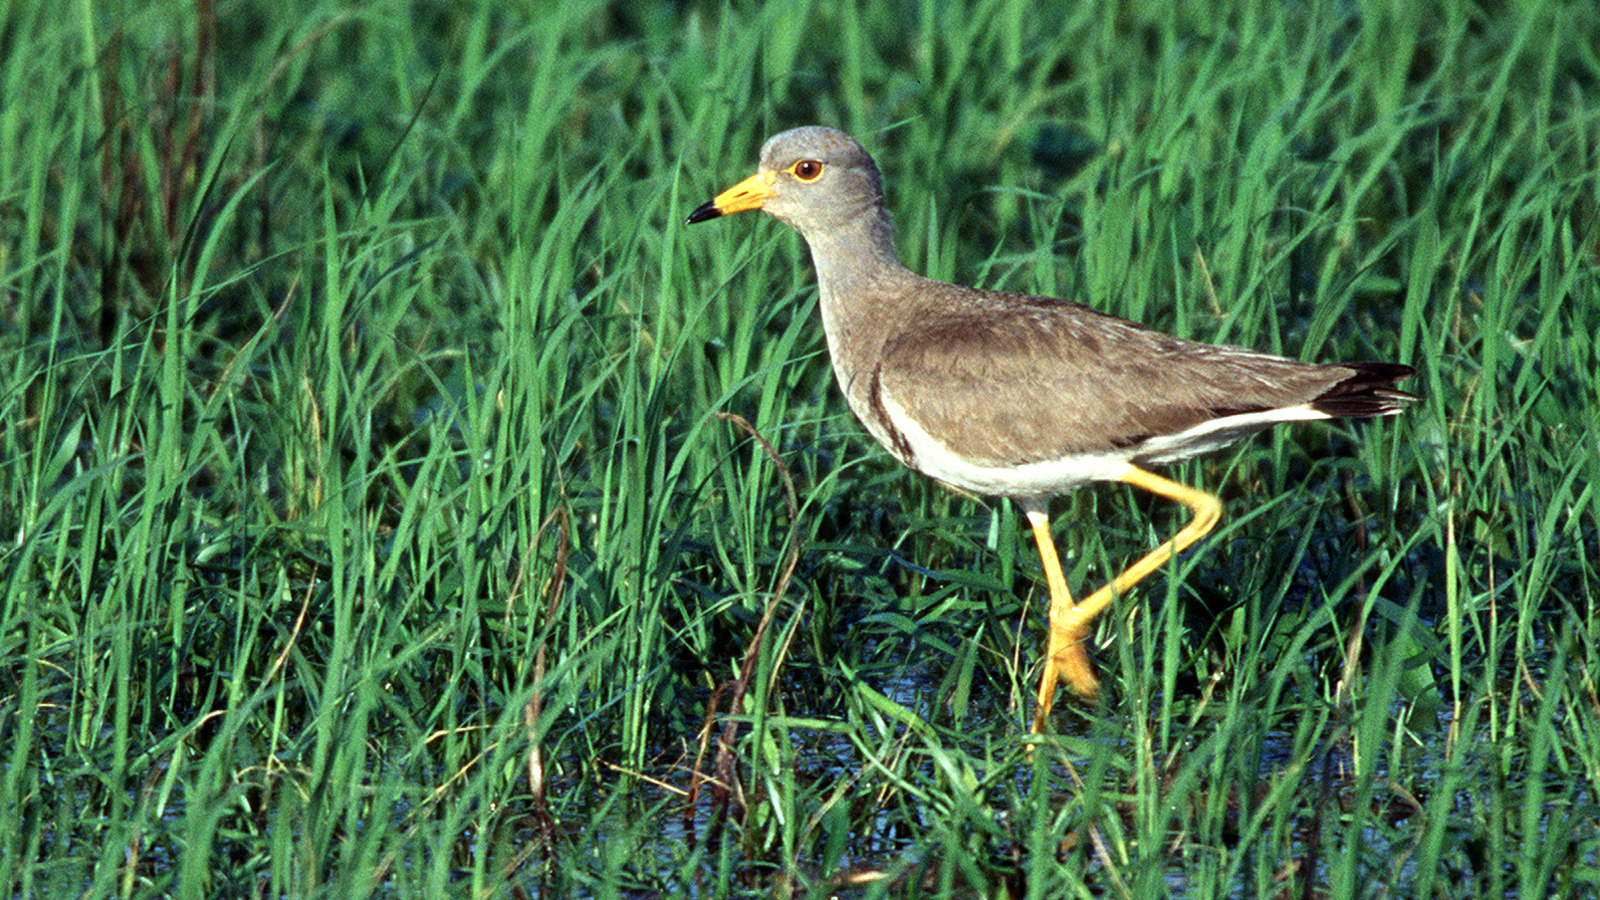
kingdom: Animalia
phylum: Chordata
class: Aves
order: Charadriiformes
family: Charadriidae
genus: Vanellus
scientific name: Vanellus cinereus
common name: Grey-headed lapwing
